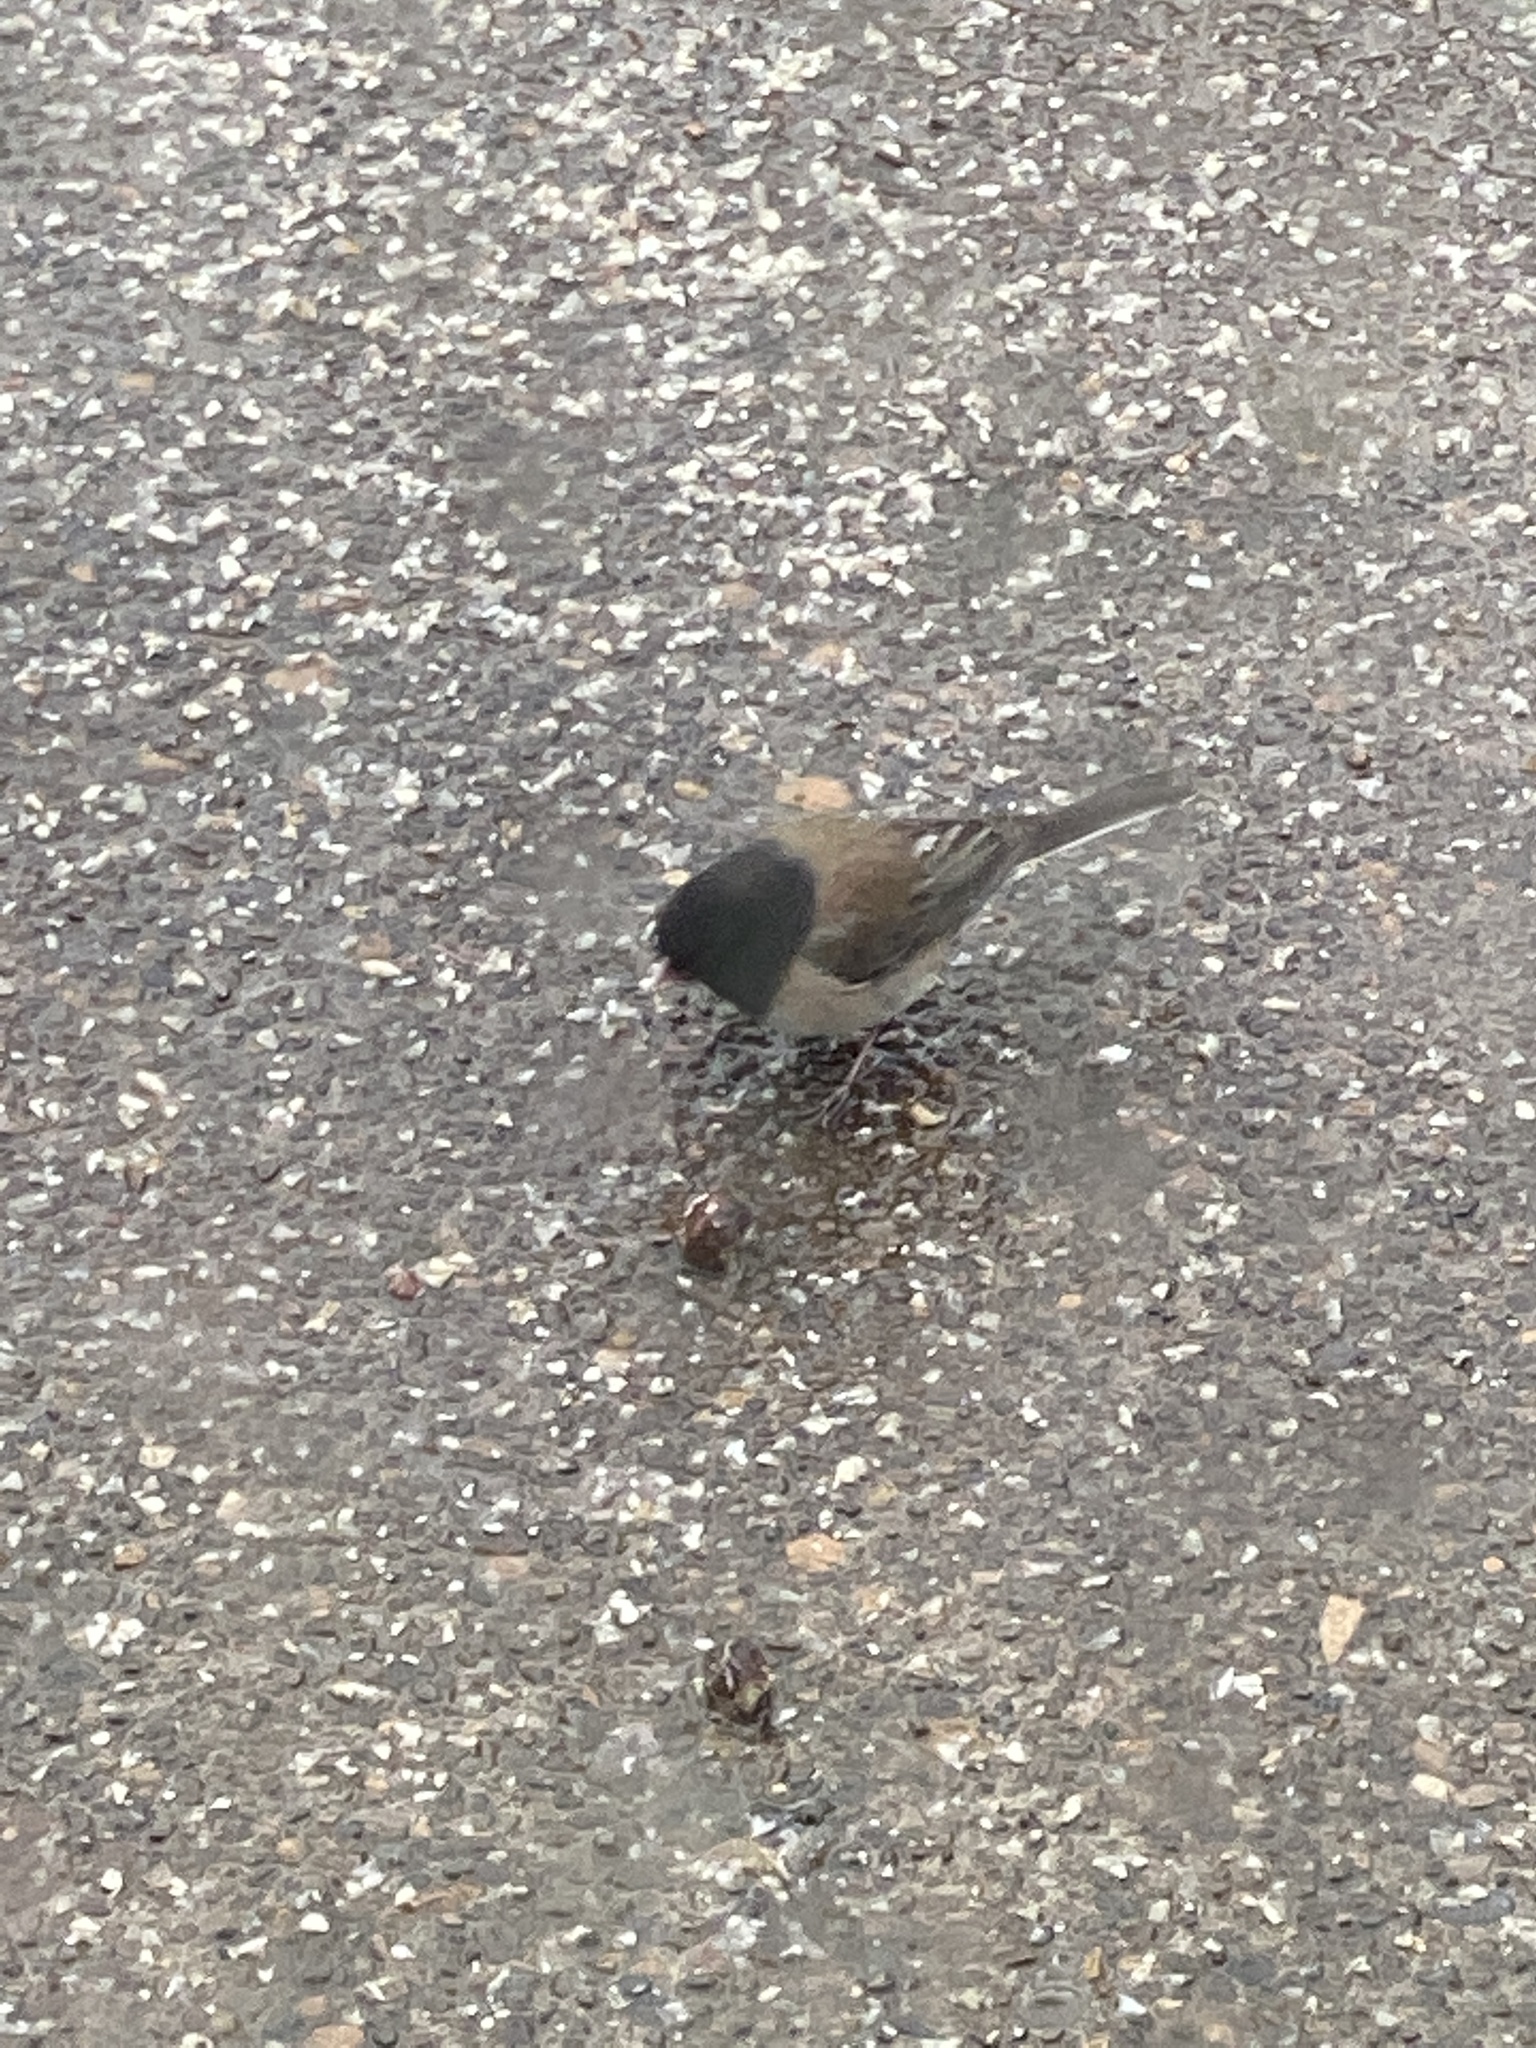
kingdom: Animalia
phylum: Chordata
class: Aves
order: Passeriformes
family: Passerellidae
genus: Junco
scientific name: Junco hyemalis
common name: Dark-eyed junco
